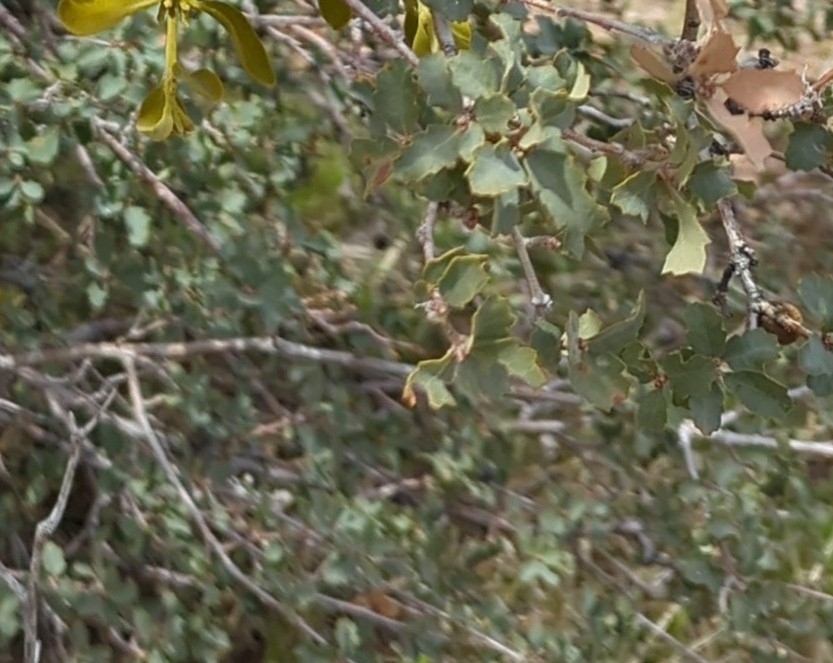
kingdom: Plantae
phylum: Tracheophyta
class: Magnoliopsida
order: Fagales
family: Fagaceae
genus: Quercus
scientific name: Quercus john-tuckeri
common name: Tucker's oak
